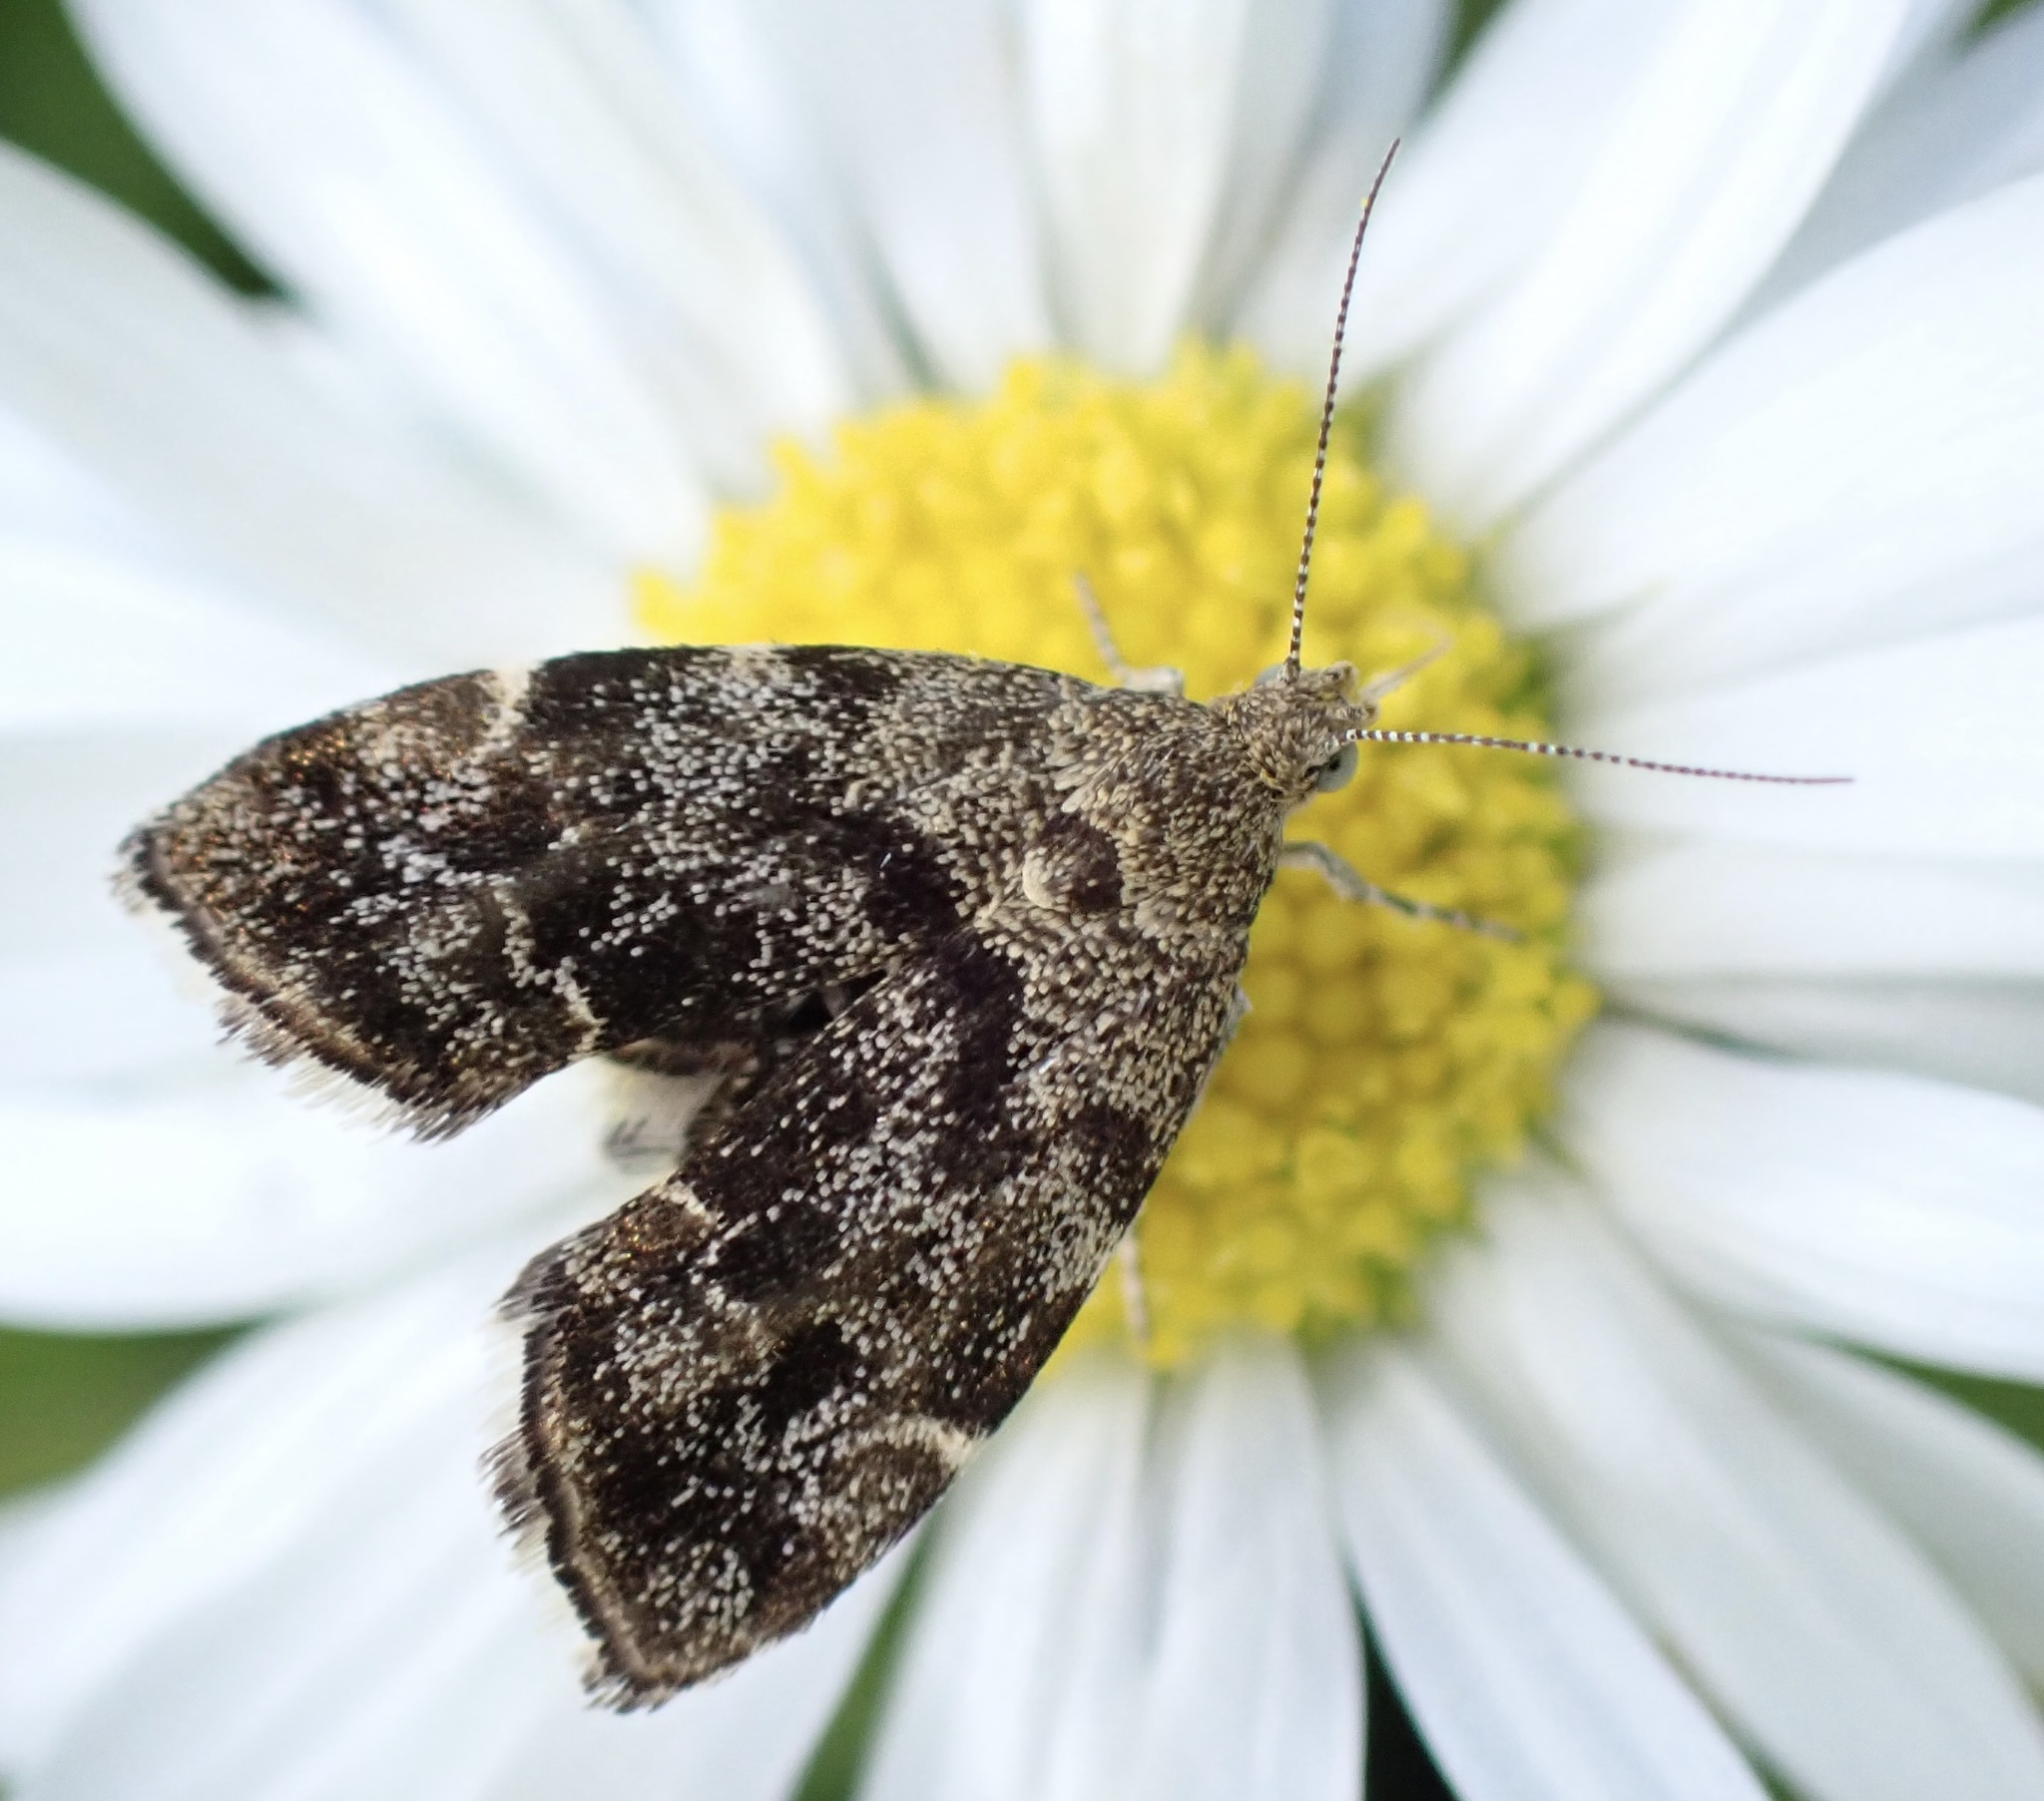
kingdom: Animalia
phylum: Arthropoda
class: Insecta
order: Lepidoptera
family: Choreutidae
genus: Anthophila
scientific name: Anthophila fabriciana
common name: Nettle-tap
